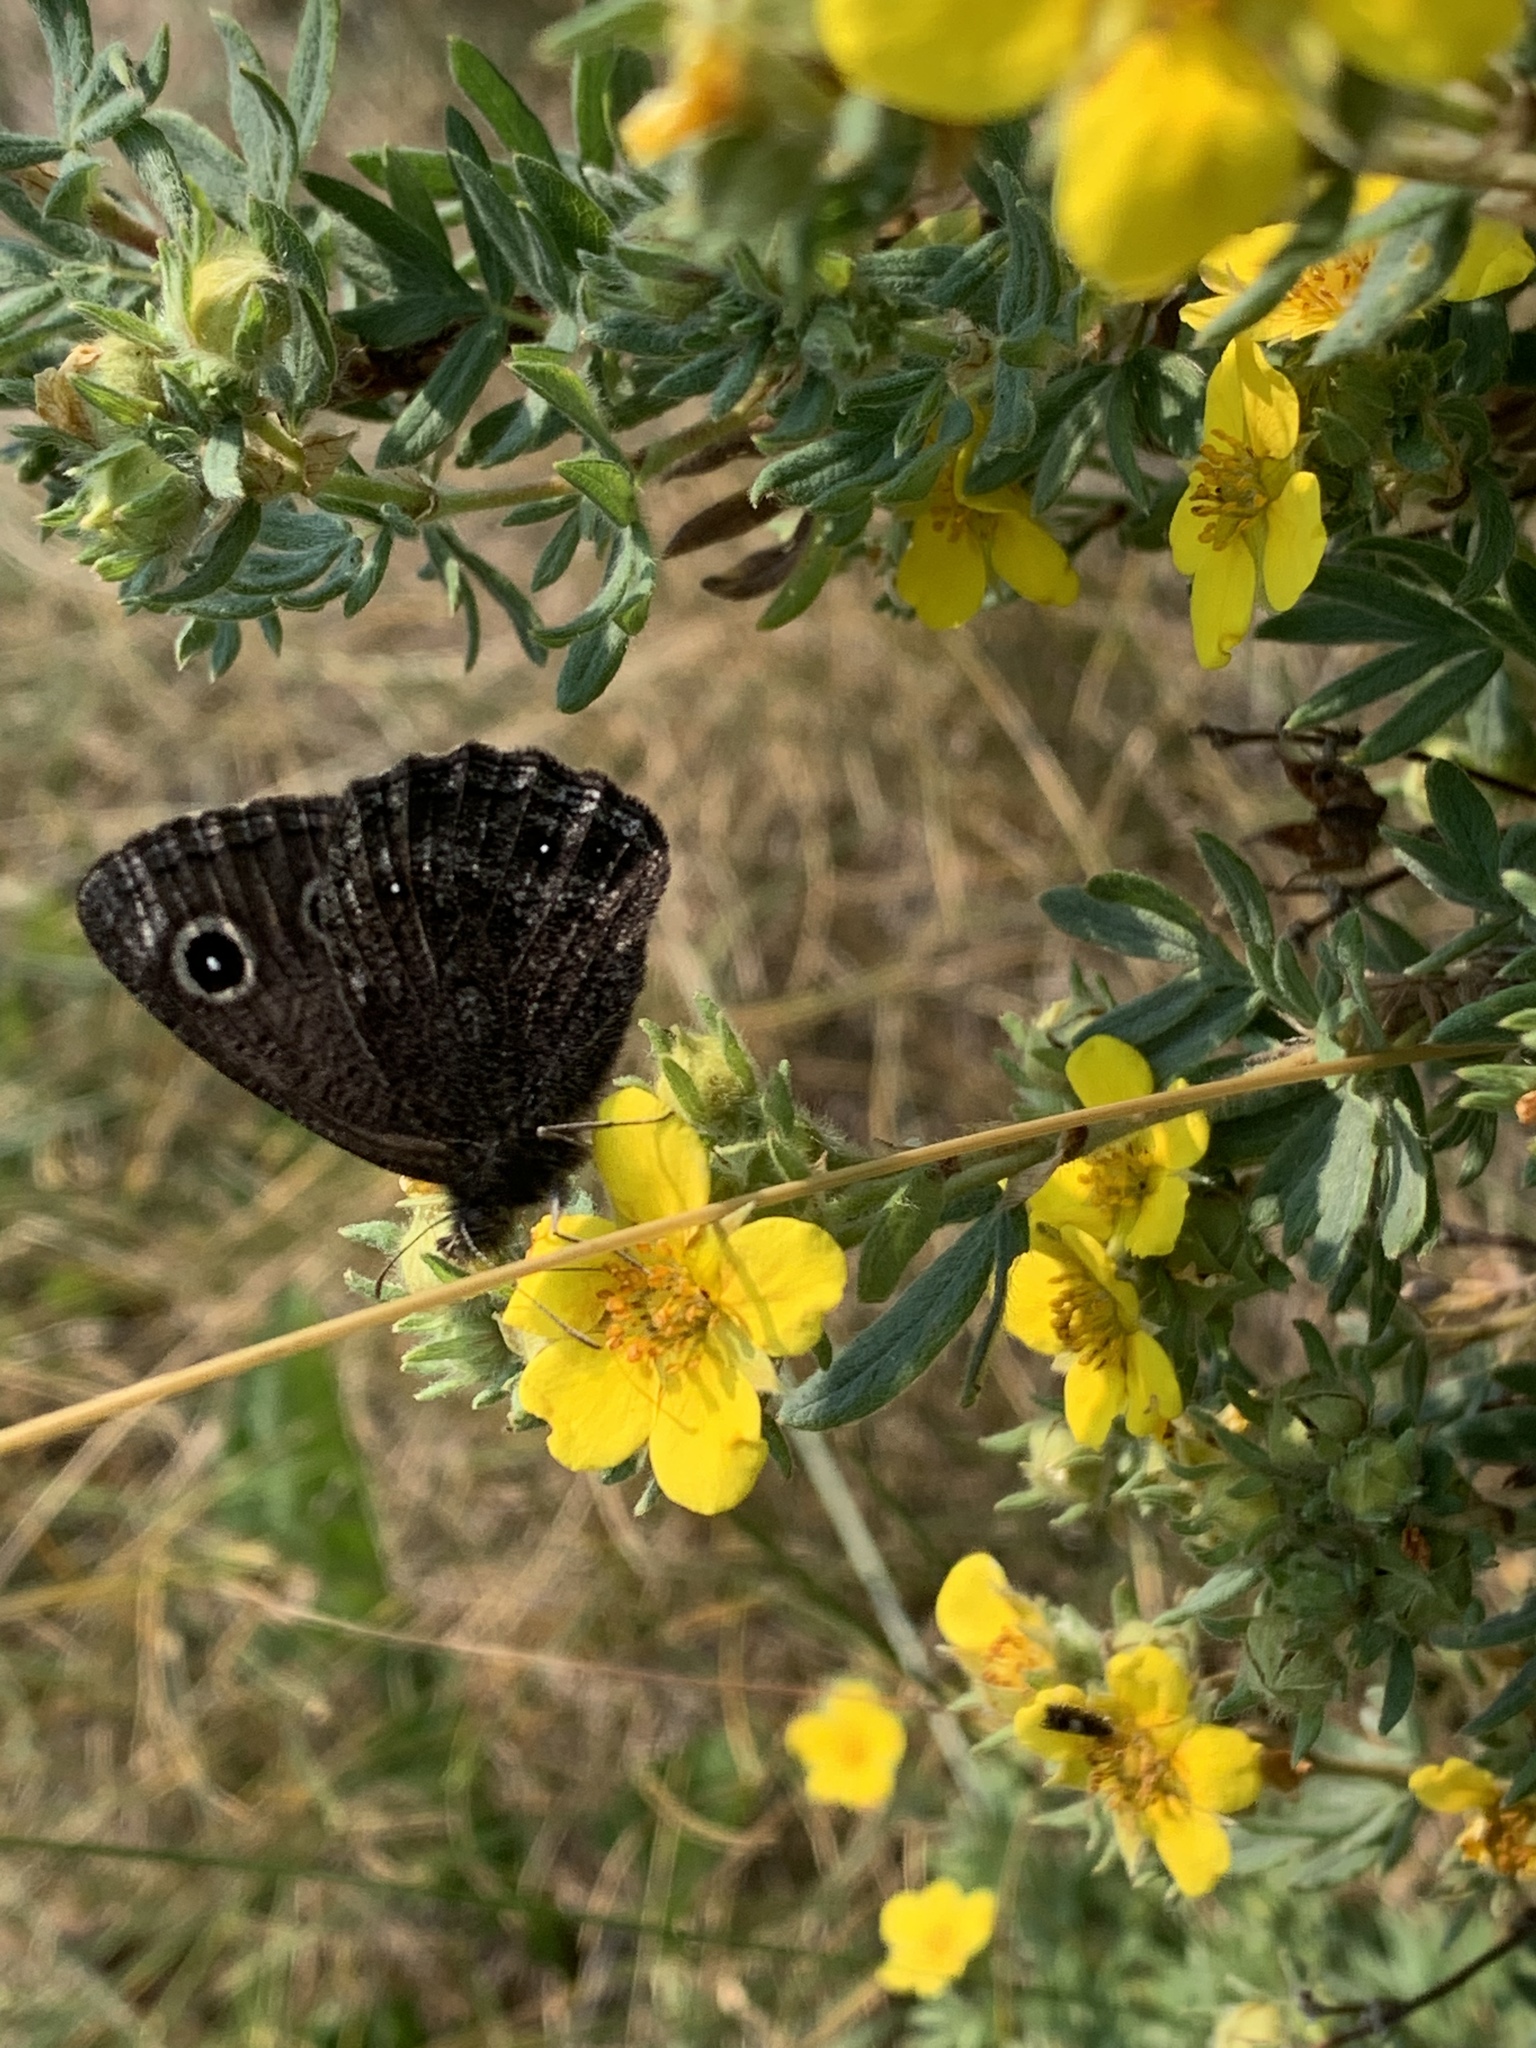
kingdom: Animalia
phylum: Arthropoda
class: Insecta
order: Lepidoptera
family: Nymphalidae
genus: Cercyonis
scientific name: Cercyonis oetus
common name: Small wood-nymph
